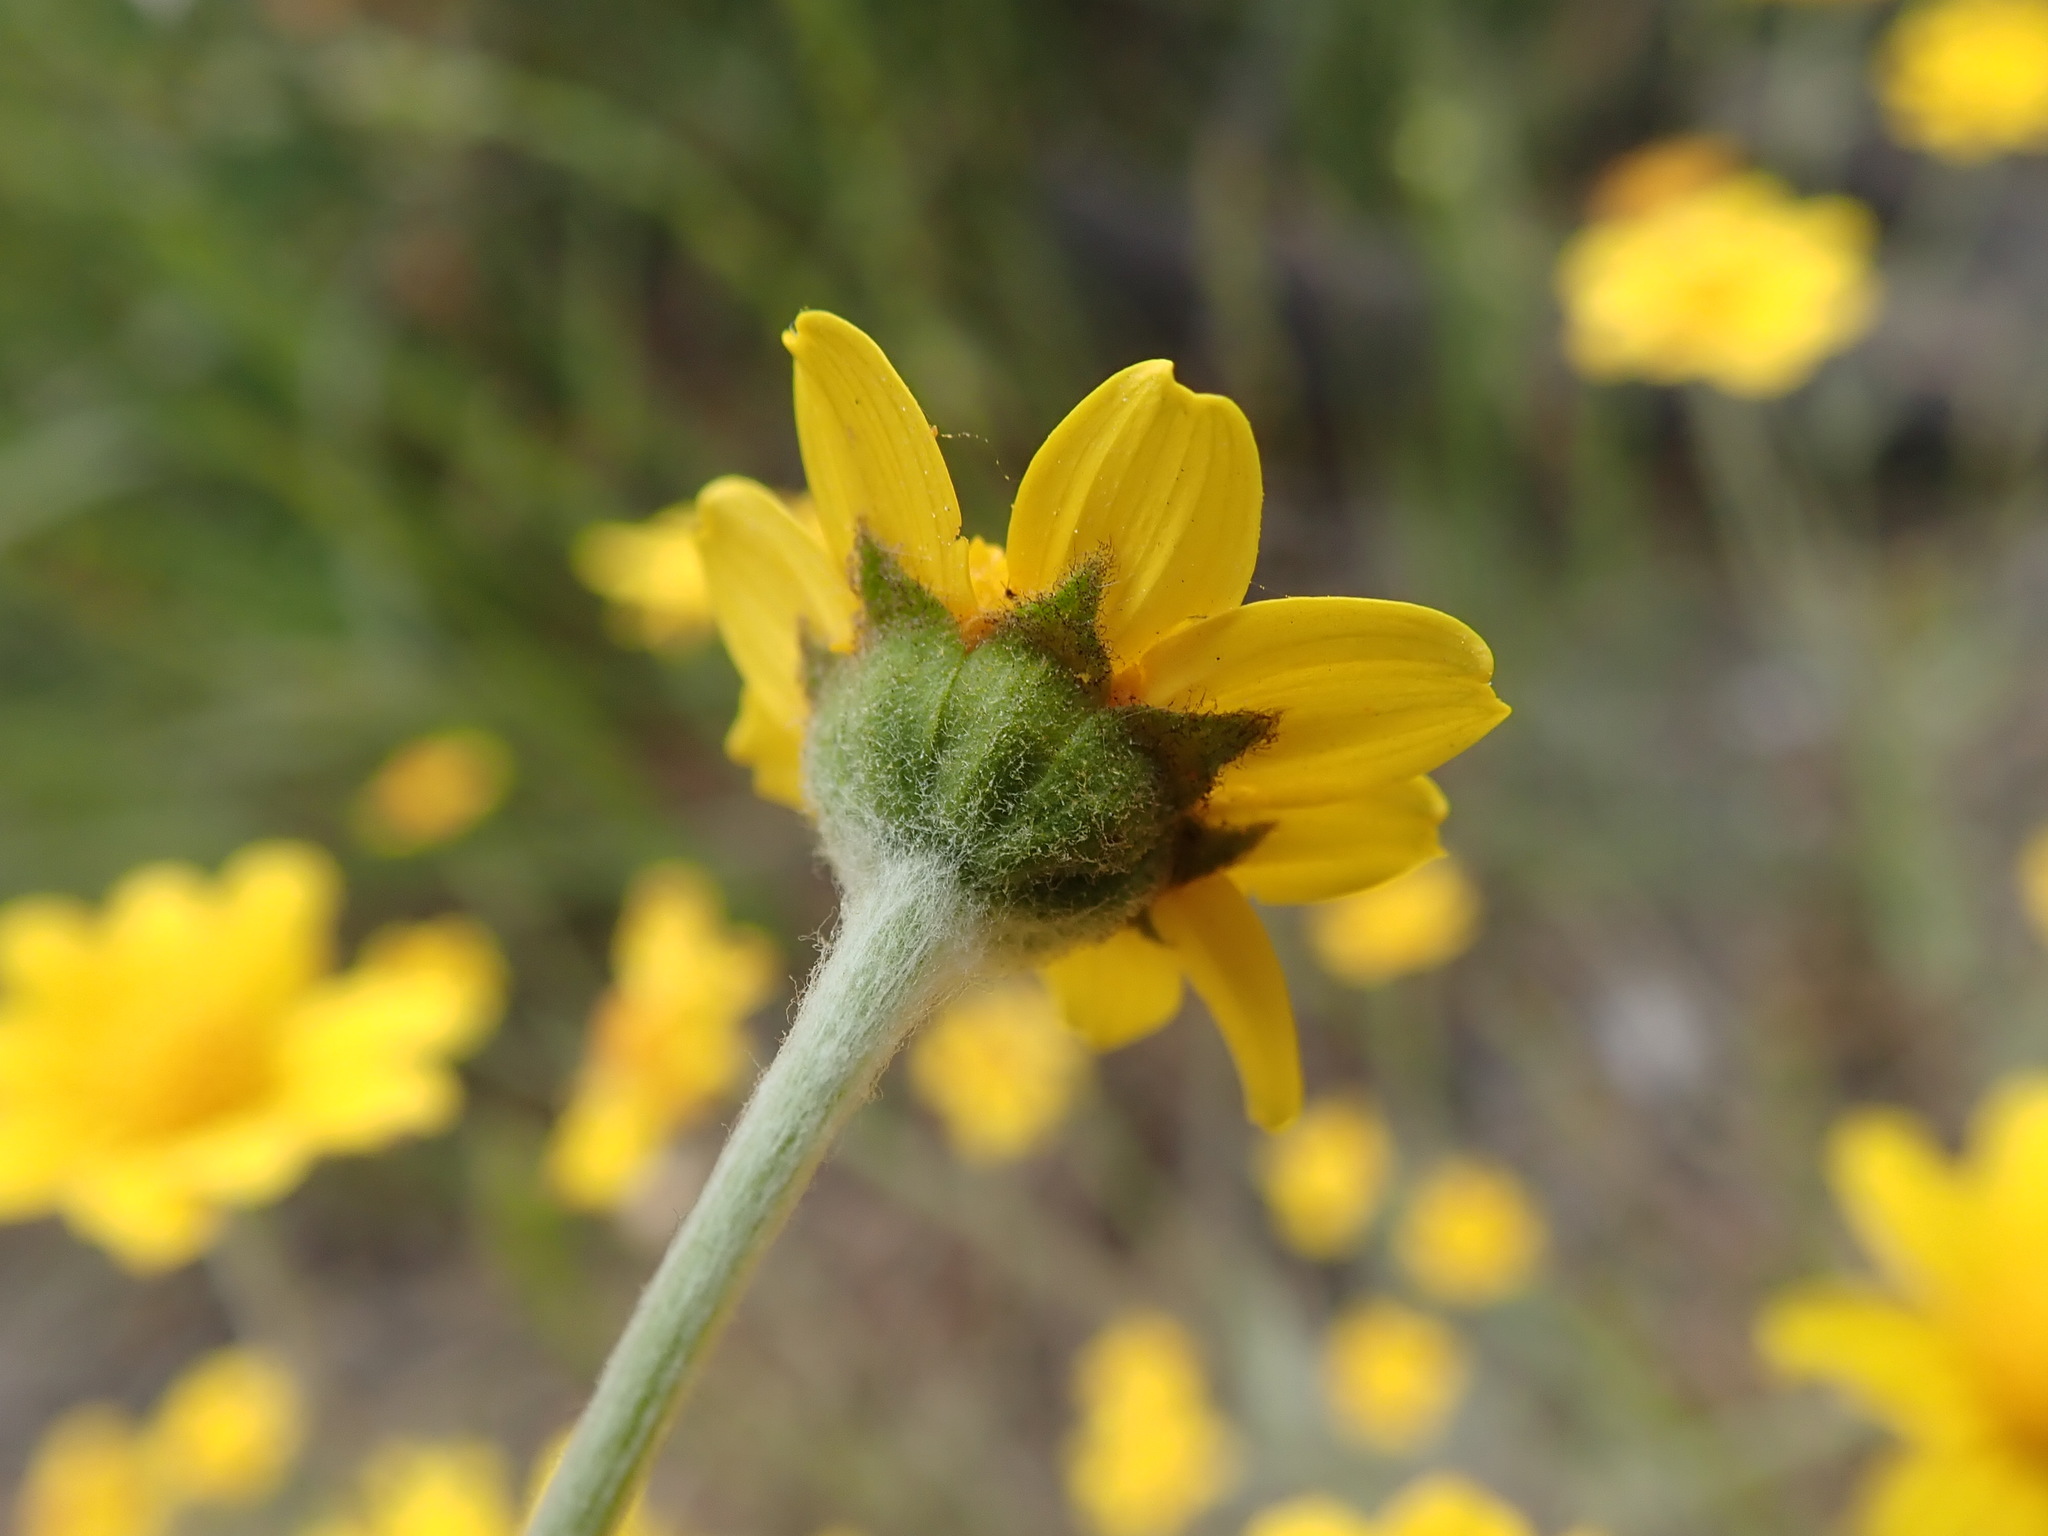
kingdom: Plantae
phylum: Tracheophyta
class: Magnoliopsida
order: Asterales
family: Asteraceae
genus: Monolopia
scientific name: Monolopia gracilens
